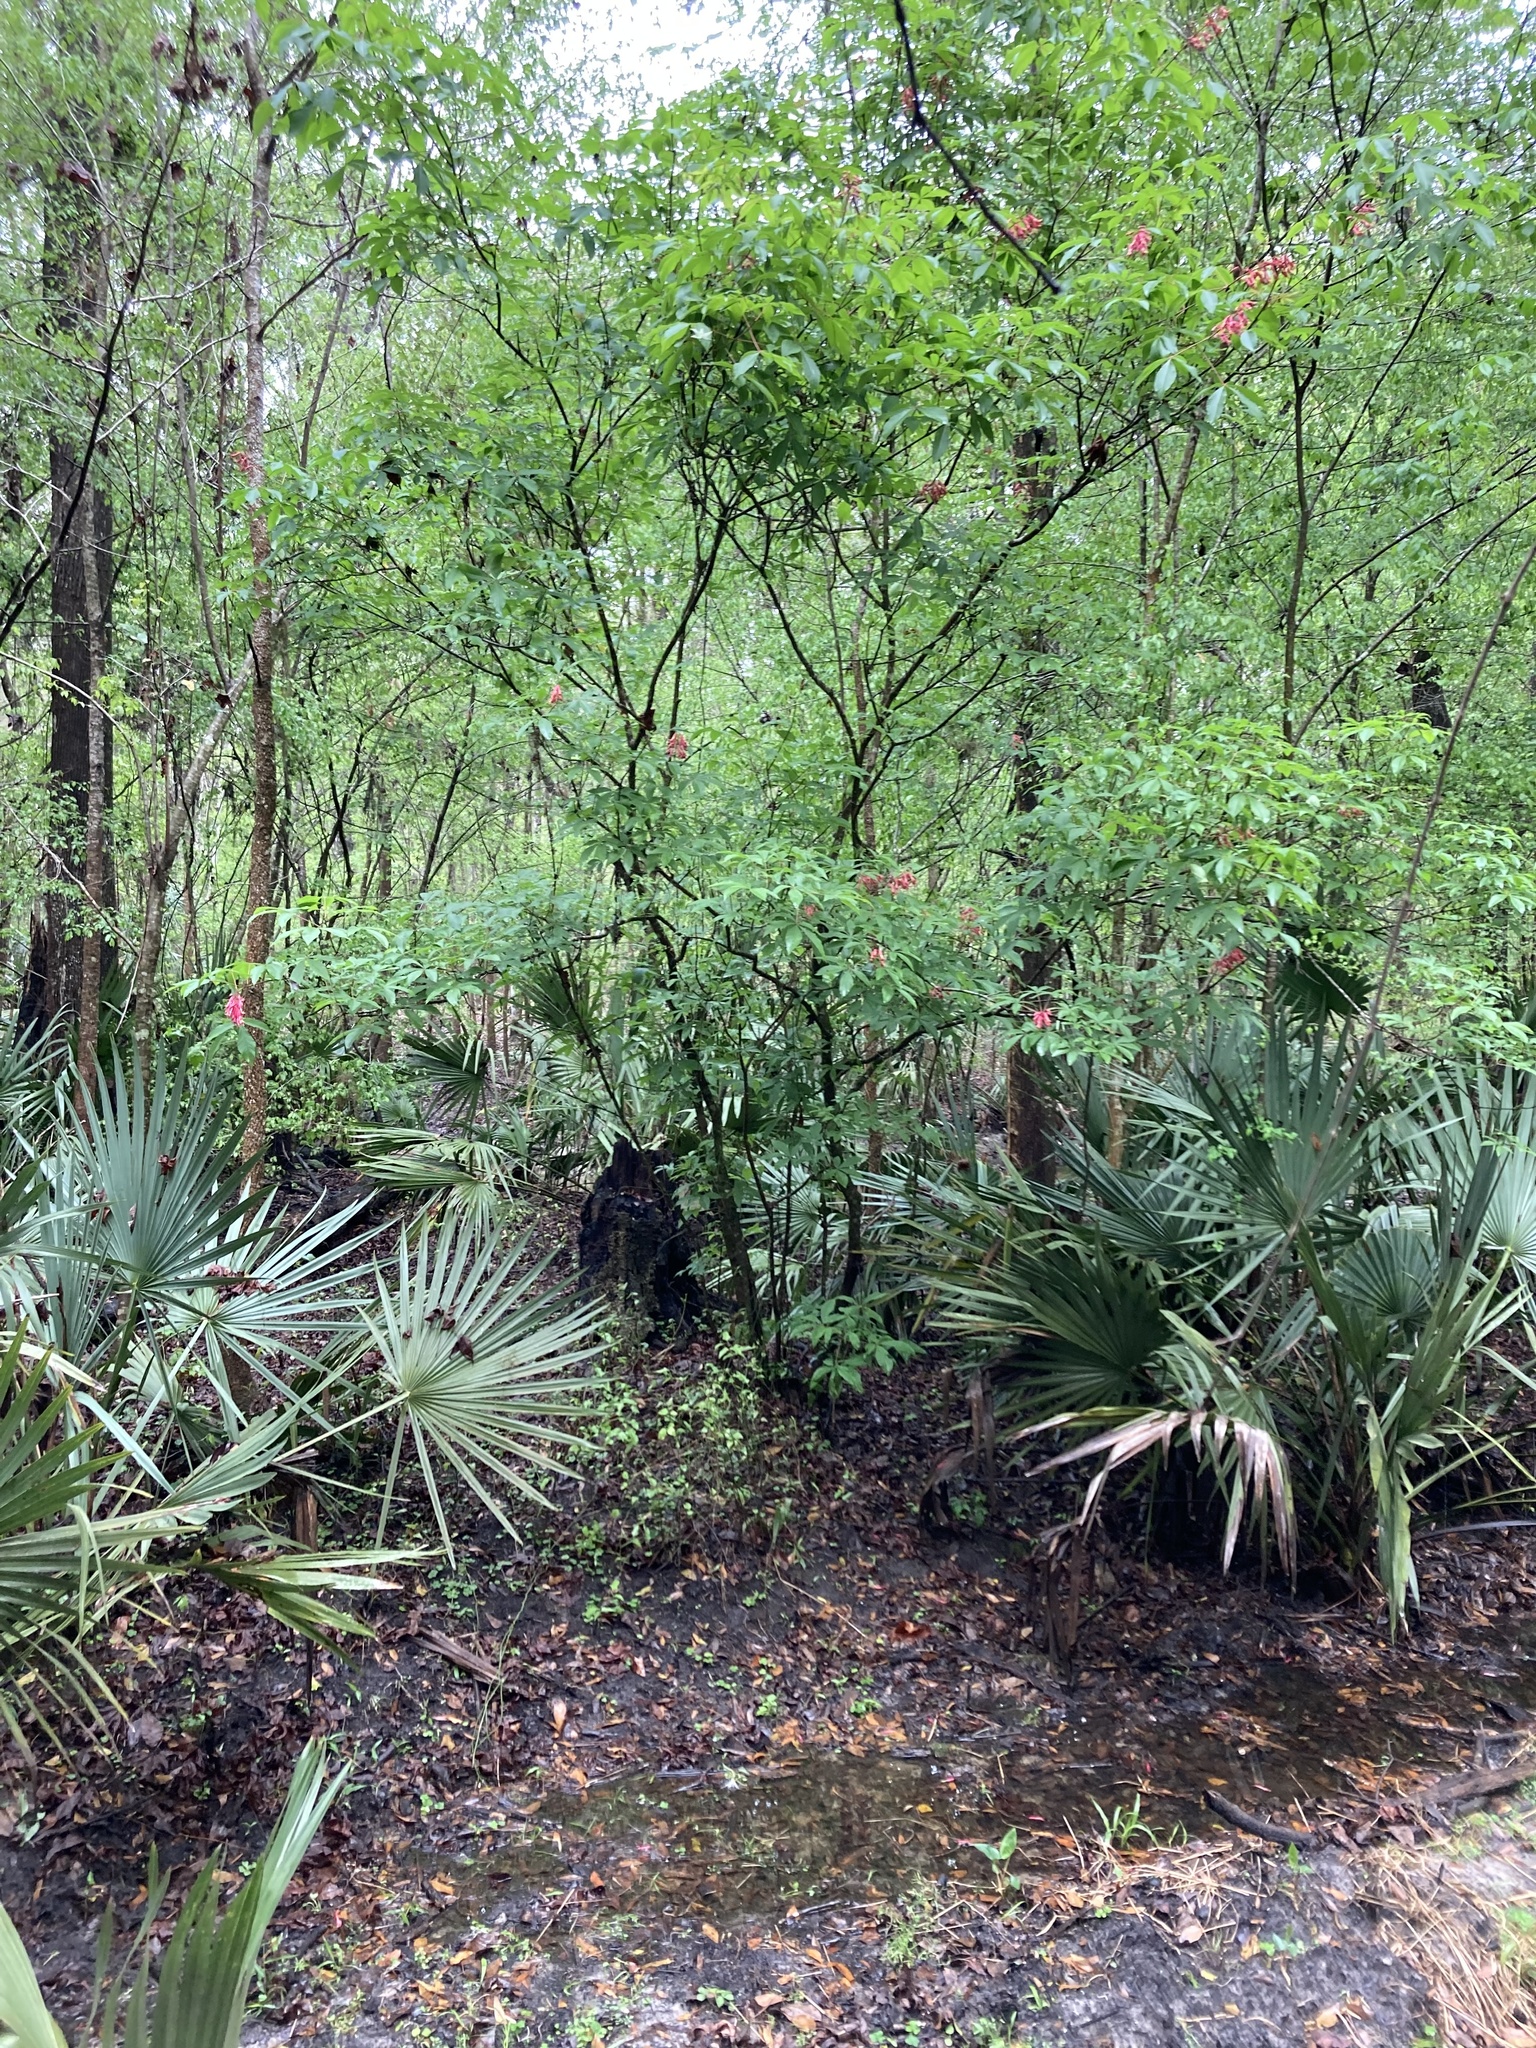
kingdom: Plantae
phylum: Tracheophyta
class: Magnoliopsida
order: Sapindales
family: Sapindaceae
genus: Aesculus
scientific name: Aesculus pavia
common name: Red buckeye
